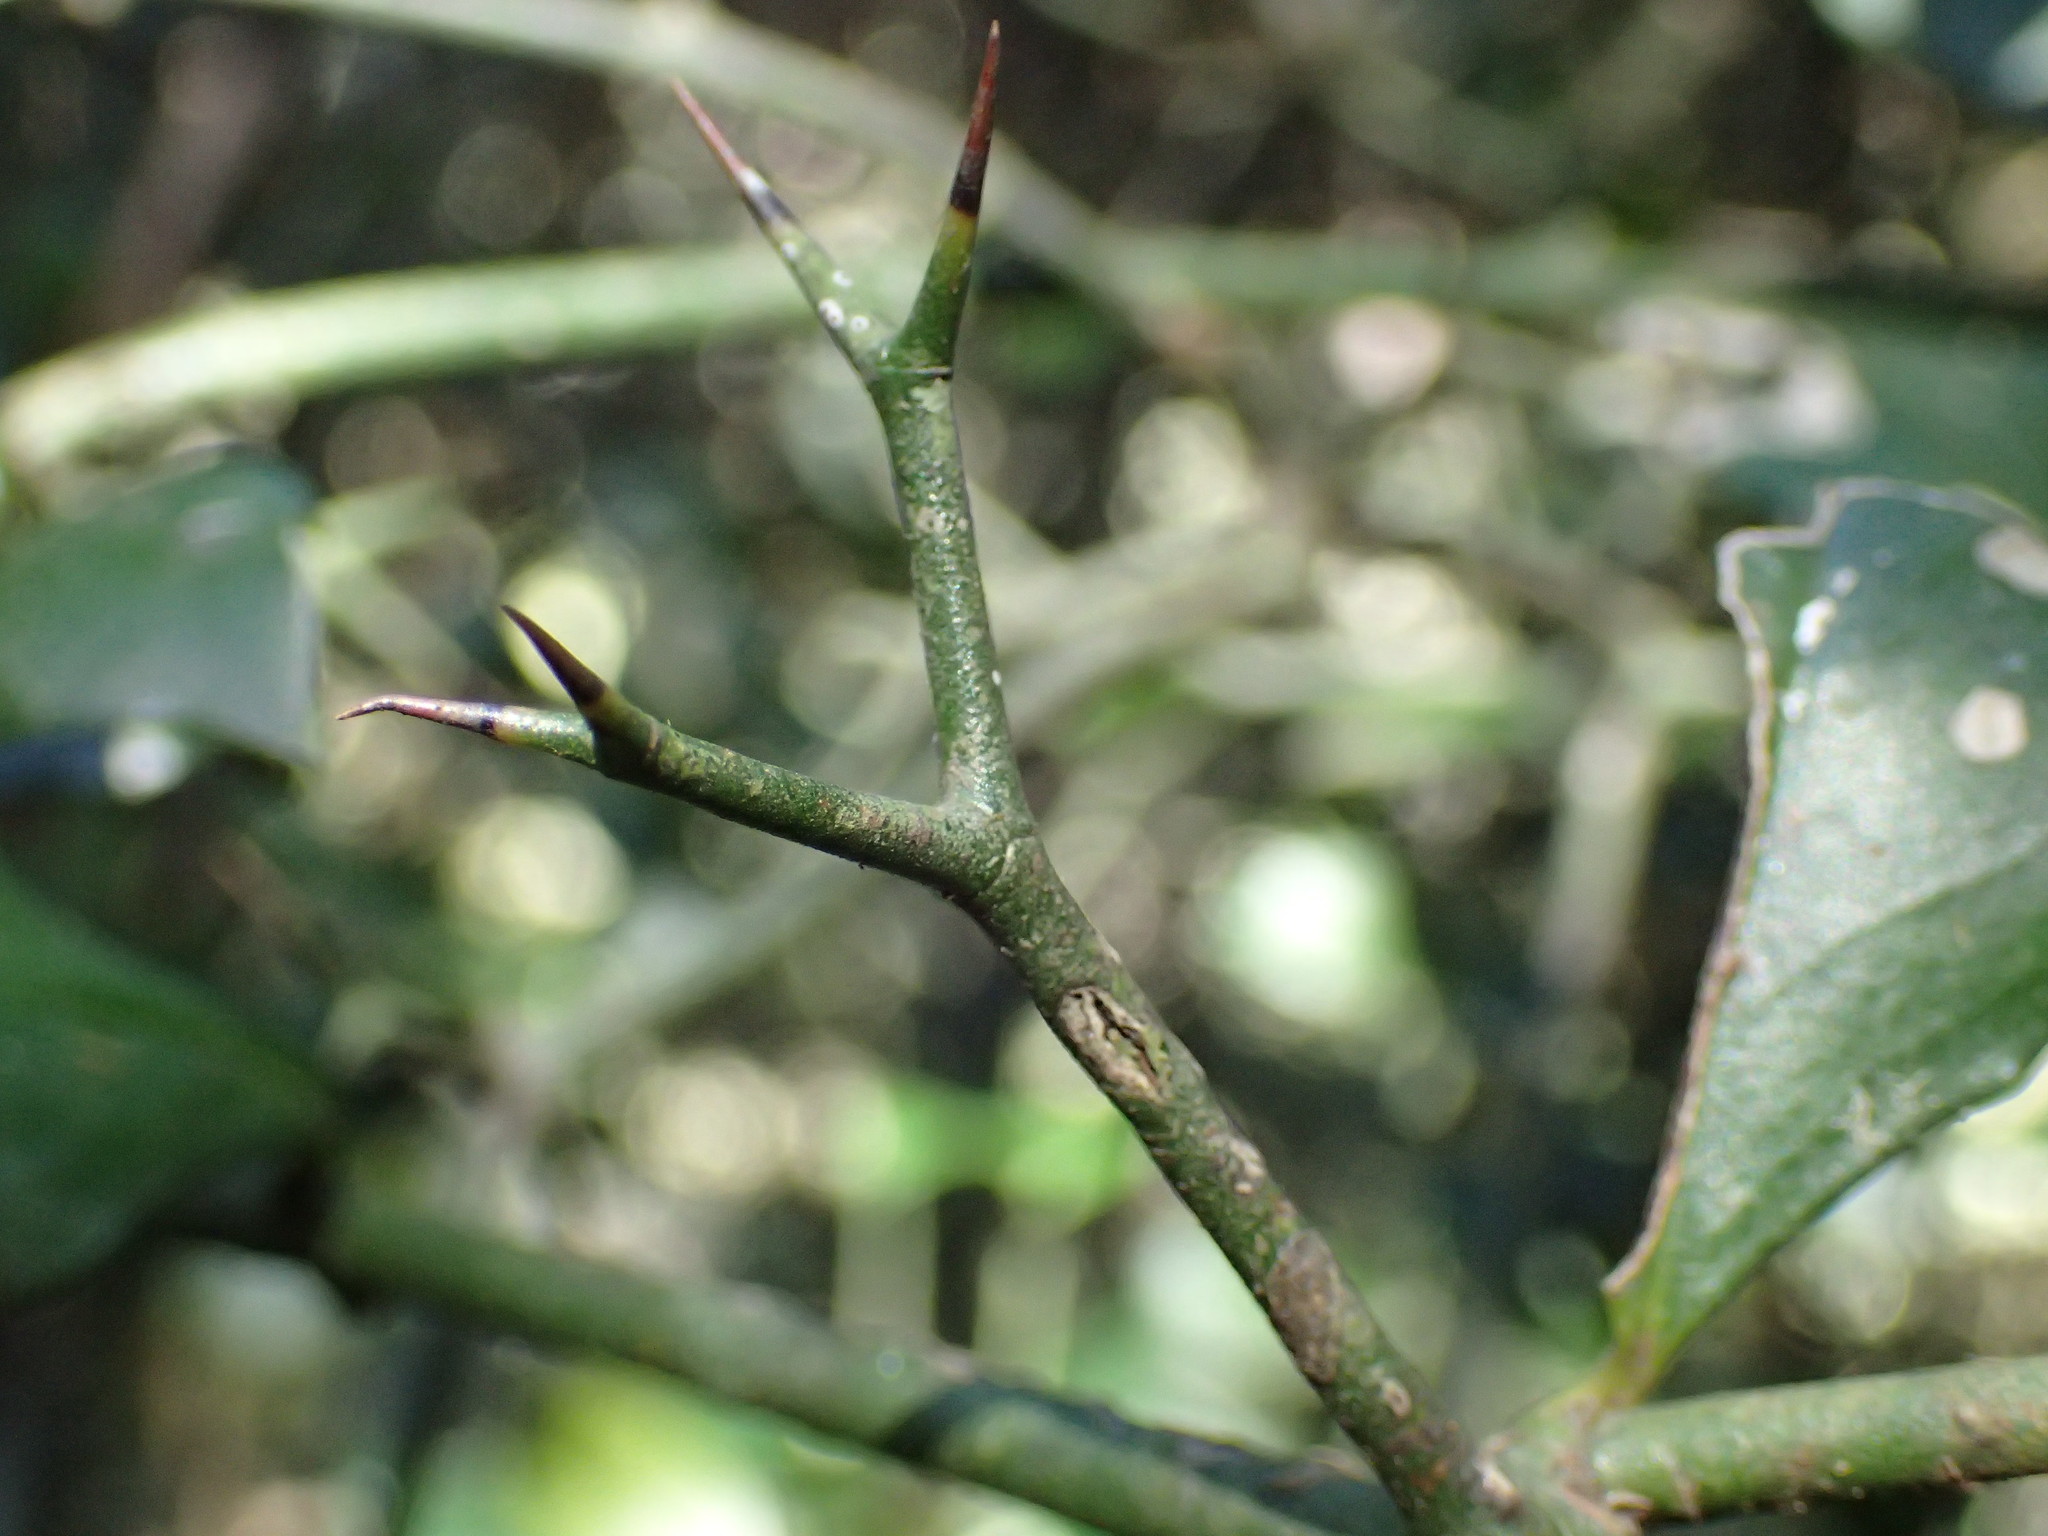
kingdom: Plantae
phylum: Tracheophyta
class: Magnoliopsida
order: Gentianales
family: Apocynaceae
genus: Carissa
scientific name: Carissa bispinosa
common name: Forest num-num
